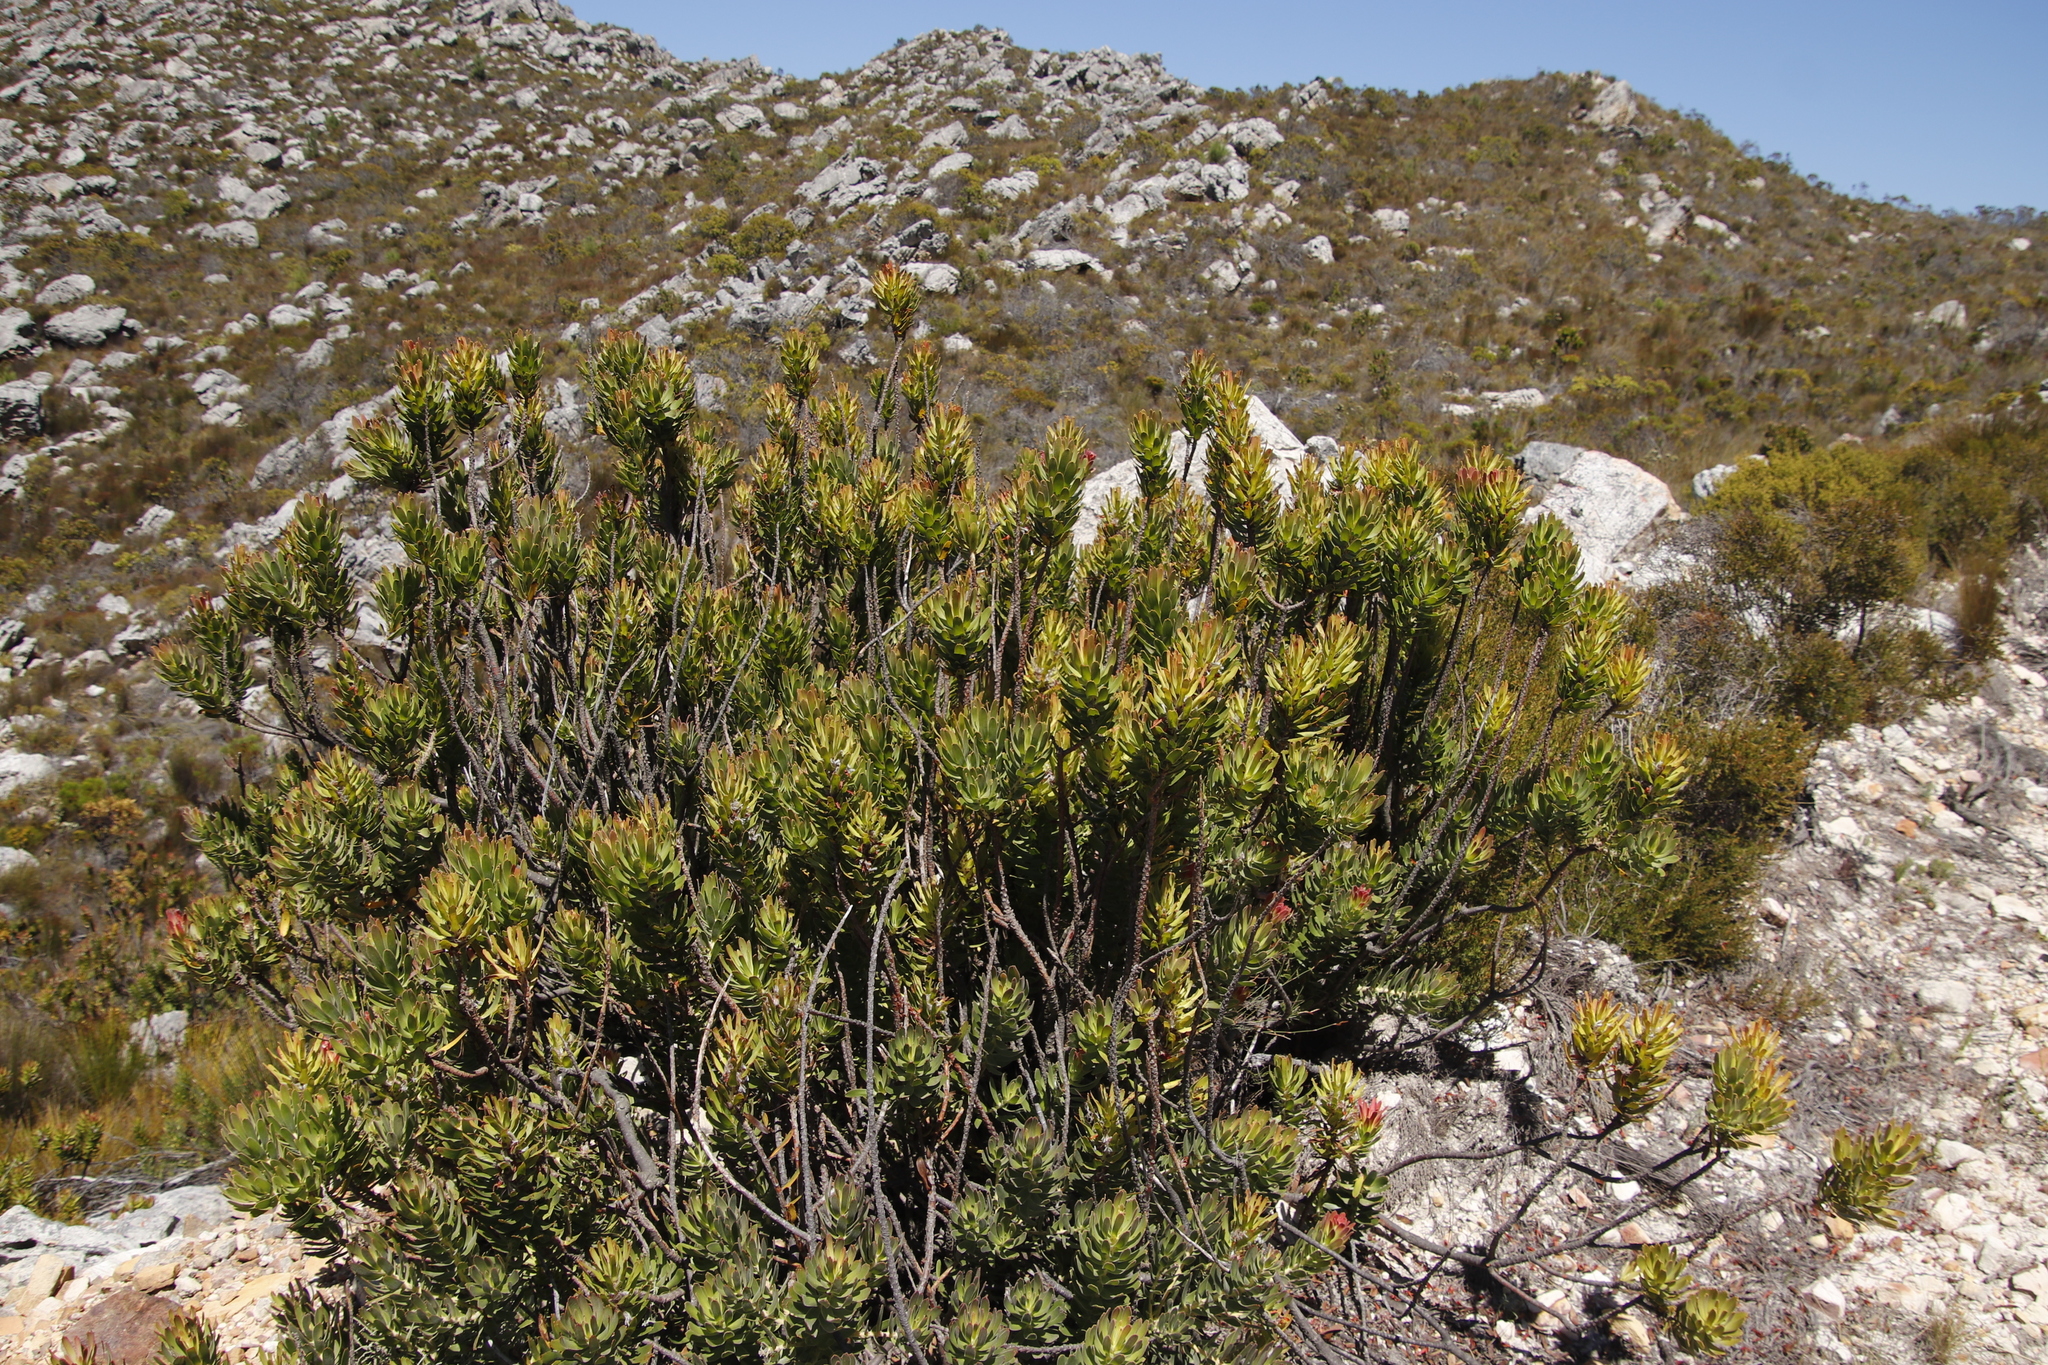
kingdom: Plantae
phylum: Tracheophyta
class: Magnoliopsida
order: Proteales
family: Proteaceae
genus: Mimetes
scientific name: Mimetes cucullatus
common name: Common pagoda
